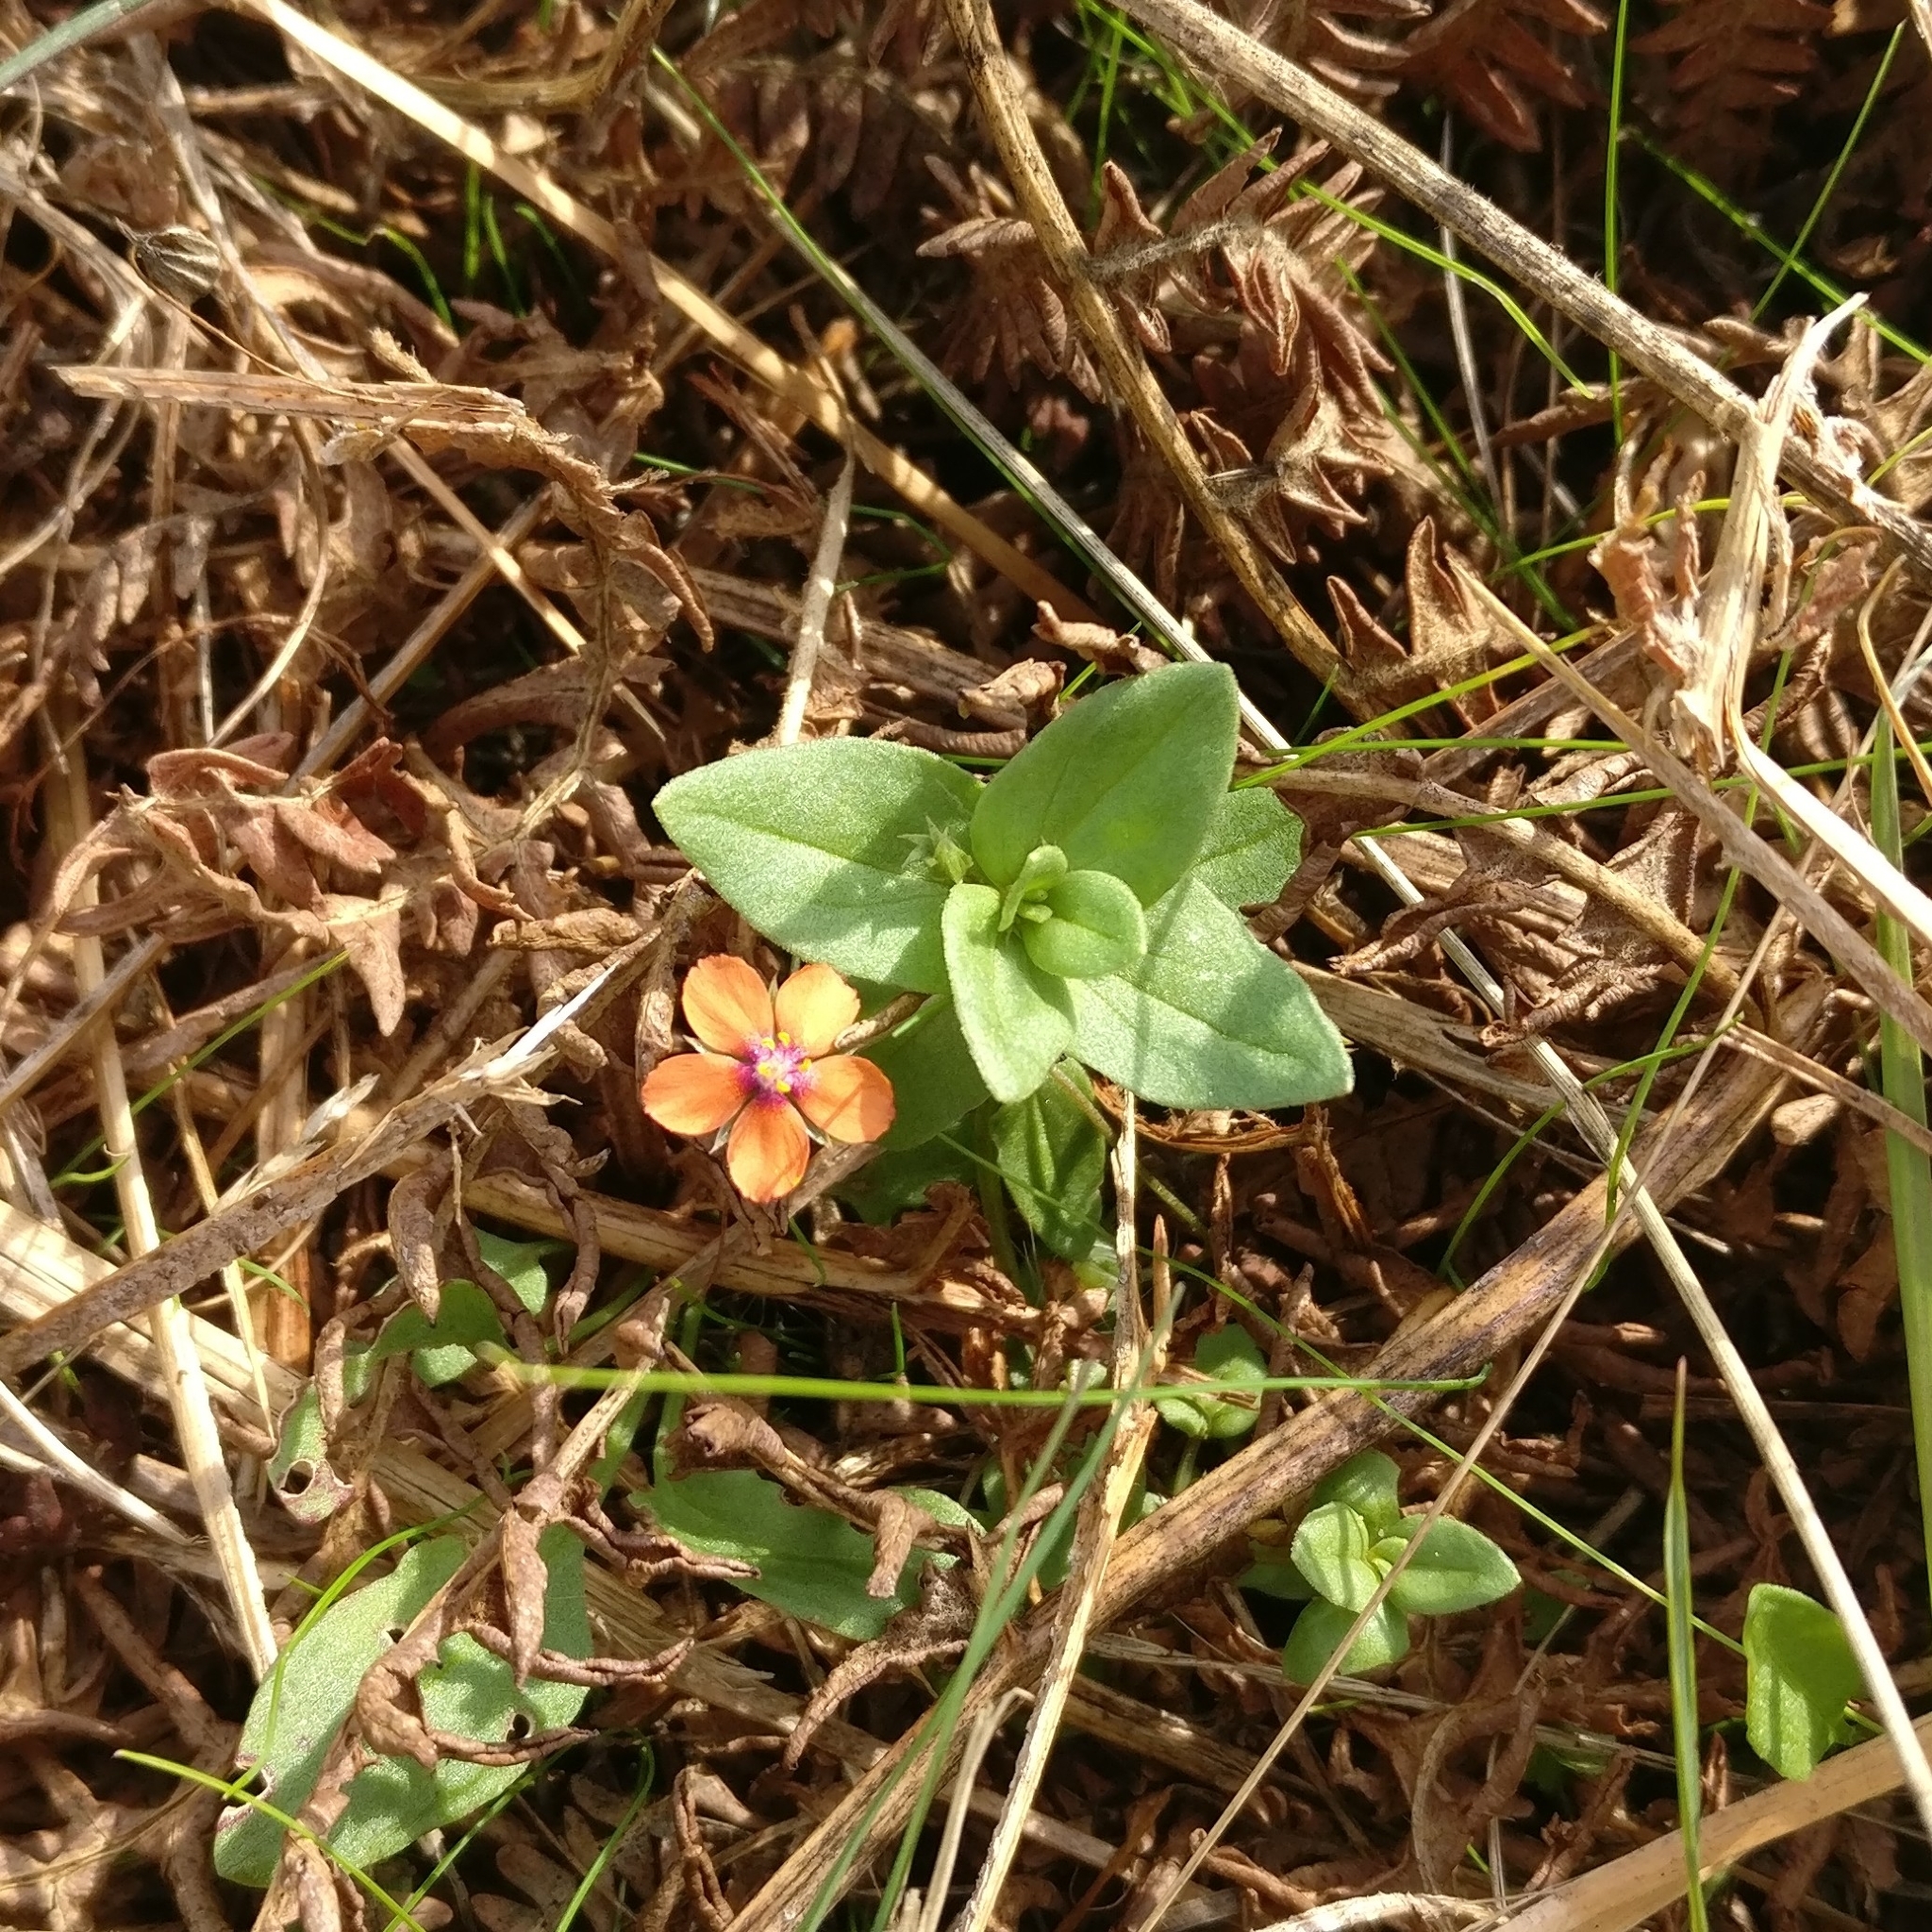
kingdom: Plantae
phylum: Tracheophyta
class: Magnoliopsida
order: Ericales
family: Primulaceae
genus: Lysimachia
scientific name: Lysimachia arvensis
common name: Scarlet pimpernel
